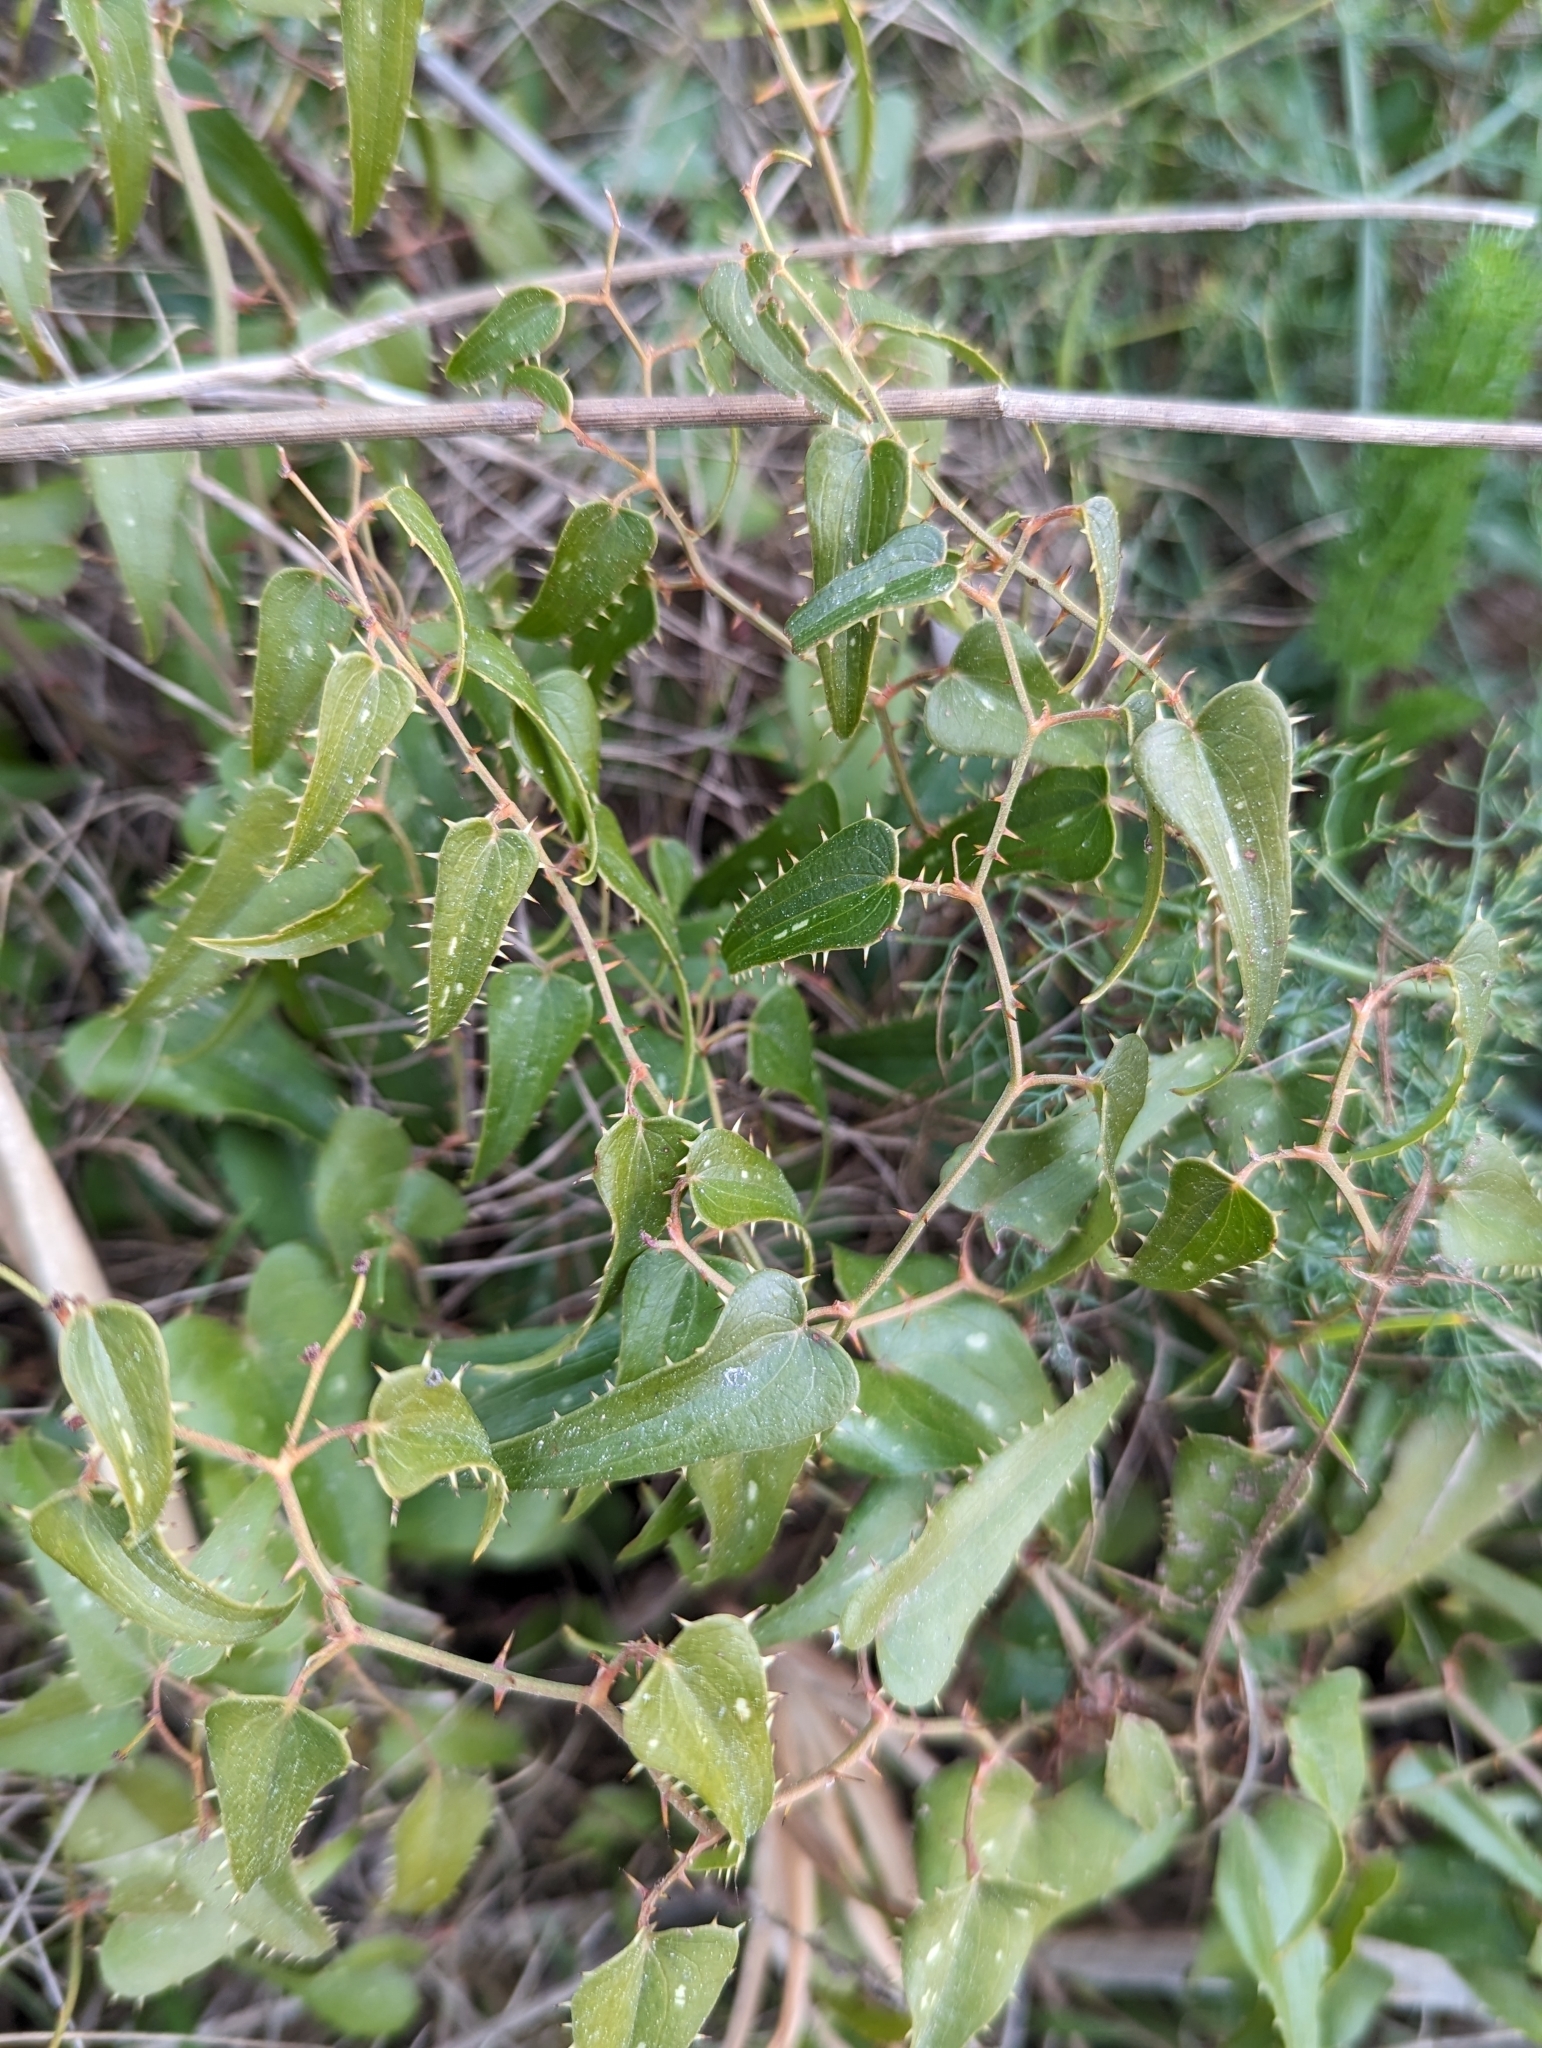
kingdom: Plantae
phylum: Tracheophyta
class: Liliopsida
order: Liliales
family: Smilacaceae
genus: Smilax
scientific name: Smilax aspera
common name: Common smilax
